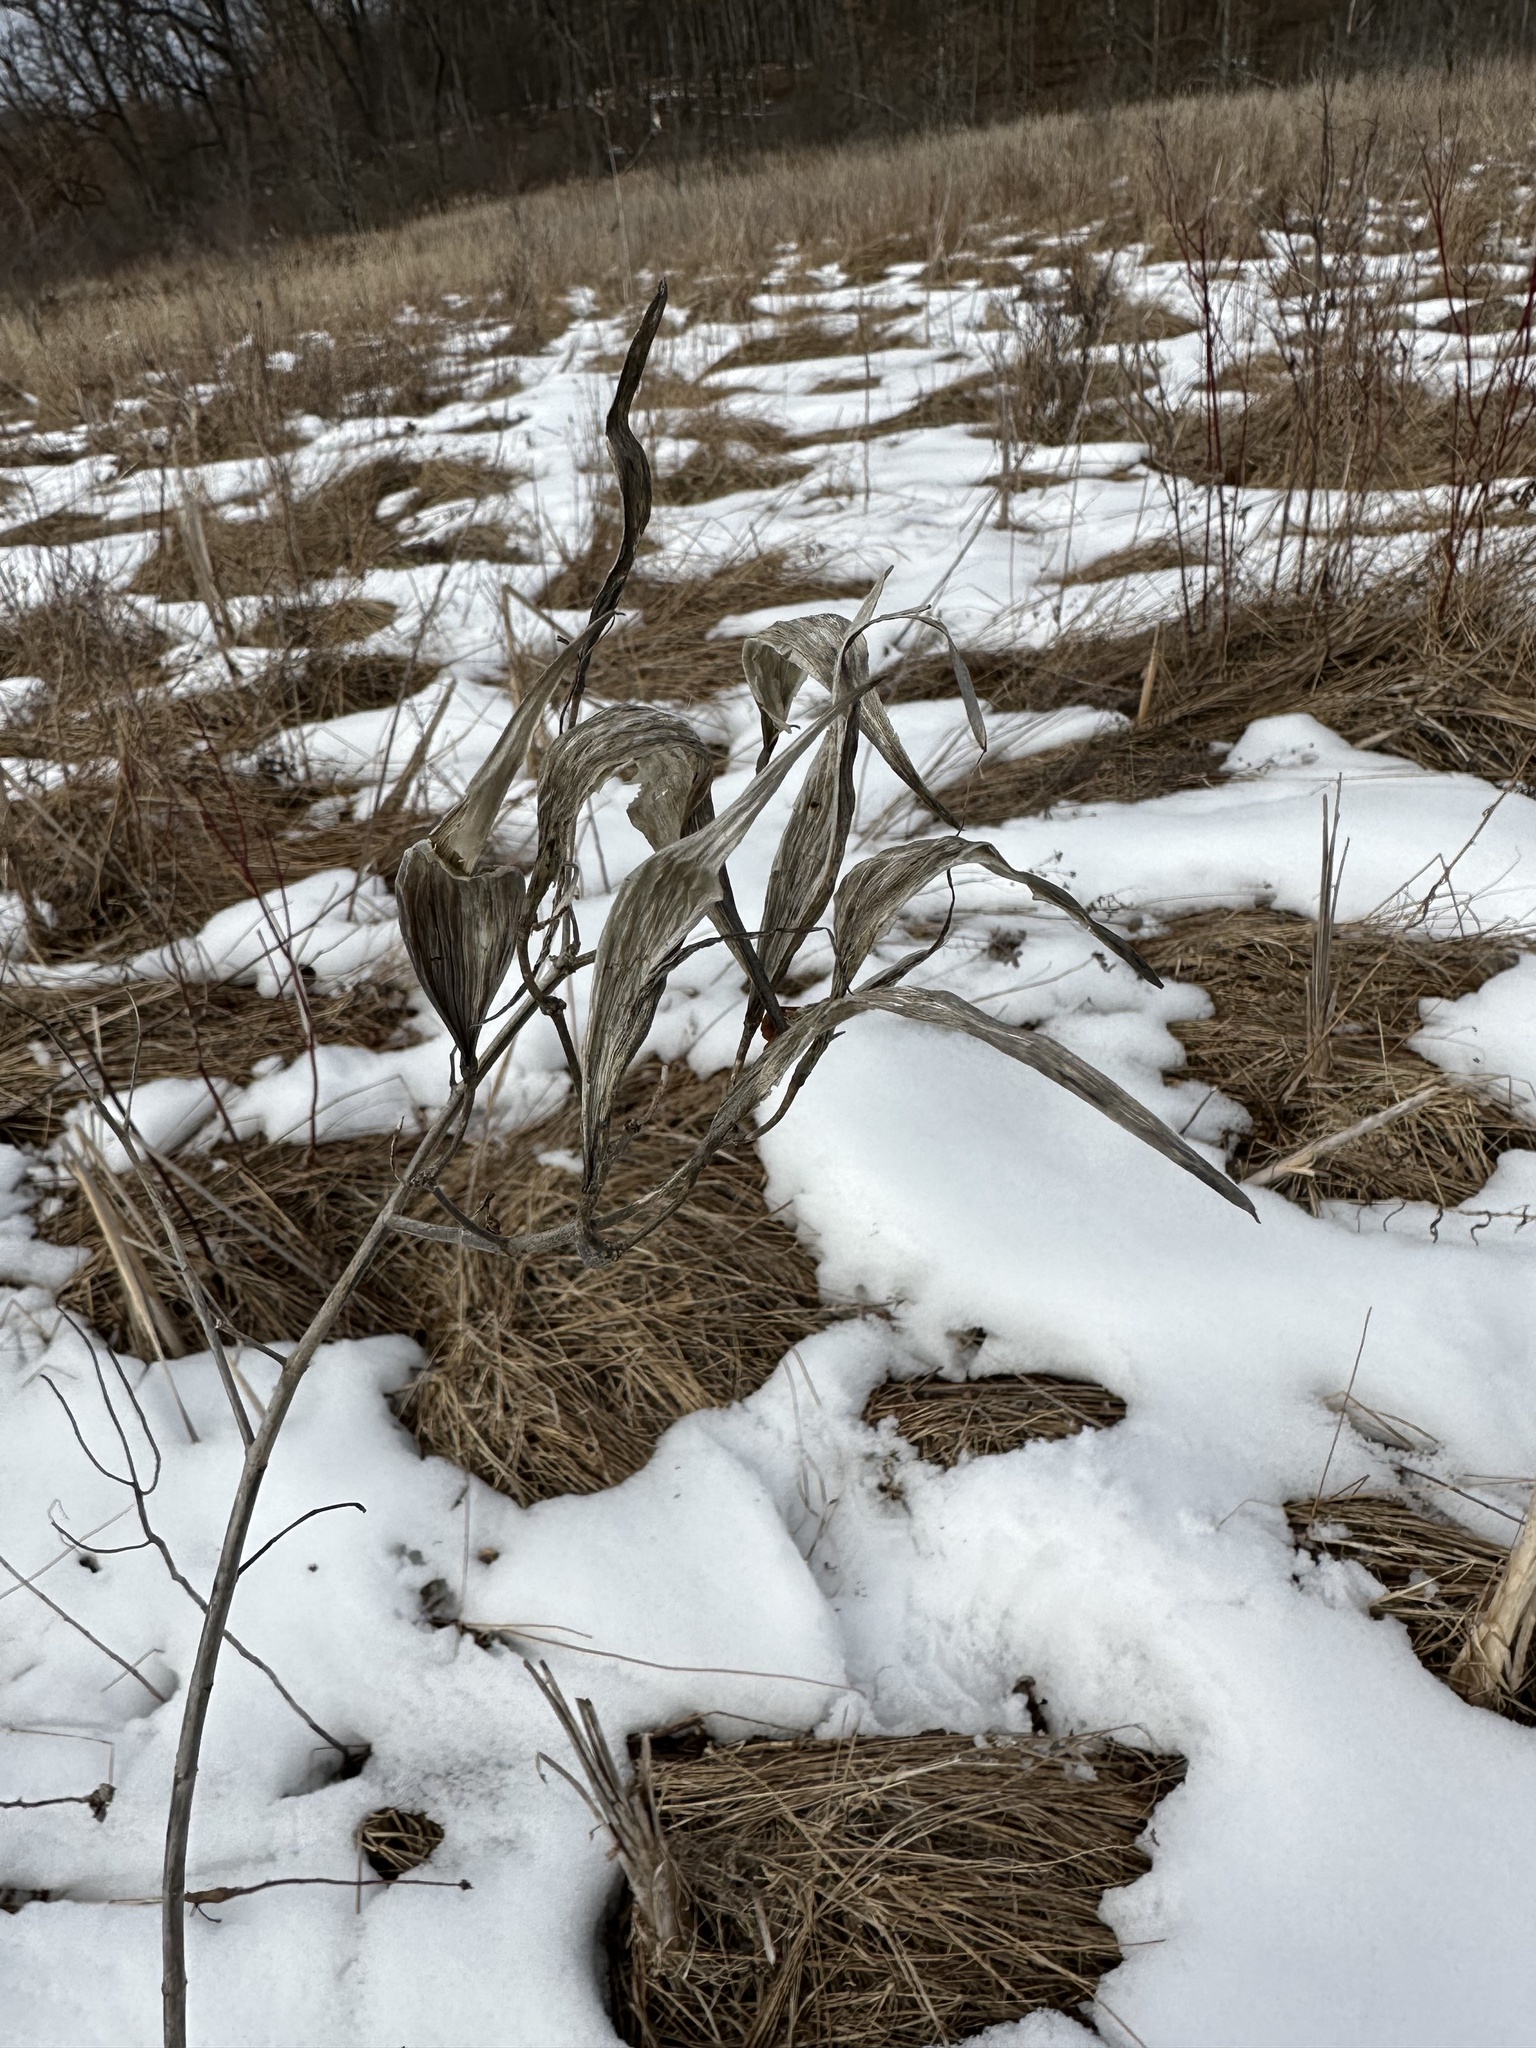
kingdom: Plantae
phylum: Tracheophyta
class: Magnoliopsida
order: Gentianales
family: Apocynaceae
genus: Asclepias
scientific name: Asclepias incarnata
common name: Swamp milkweed
